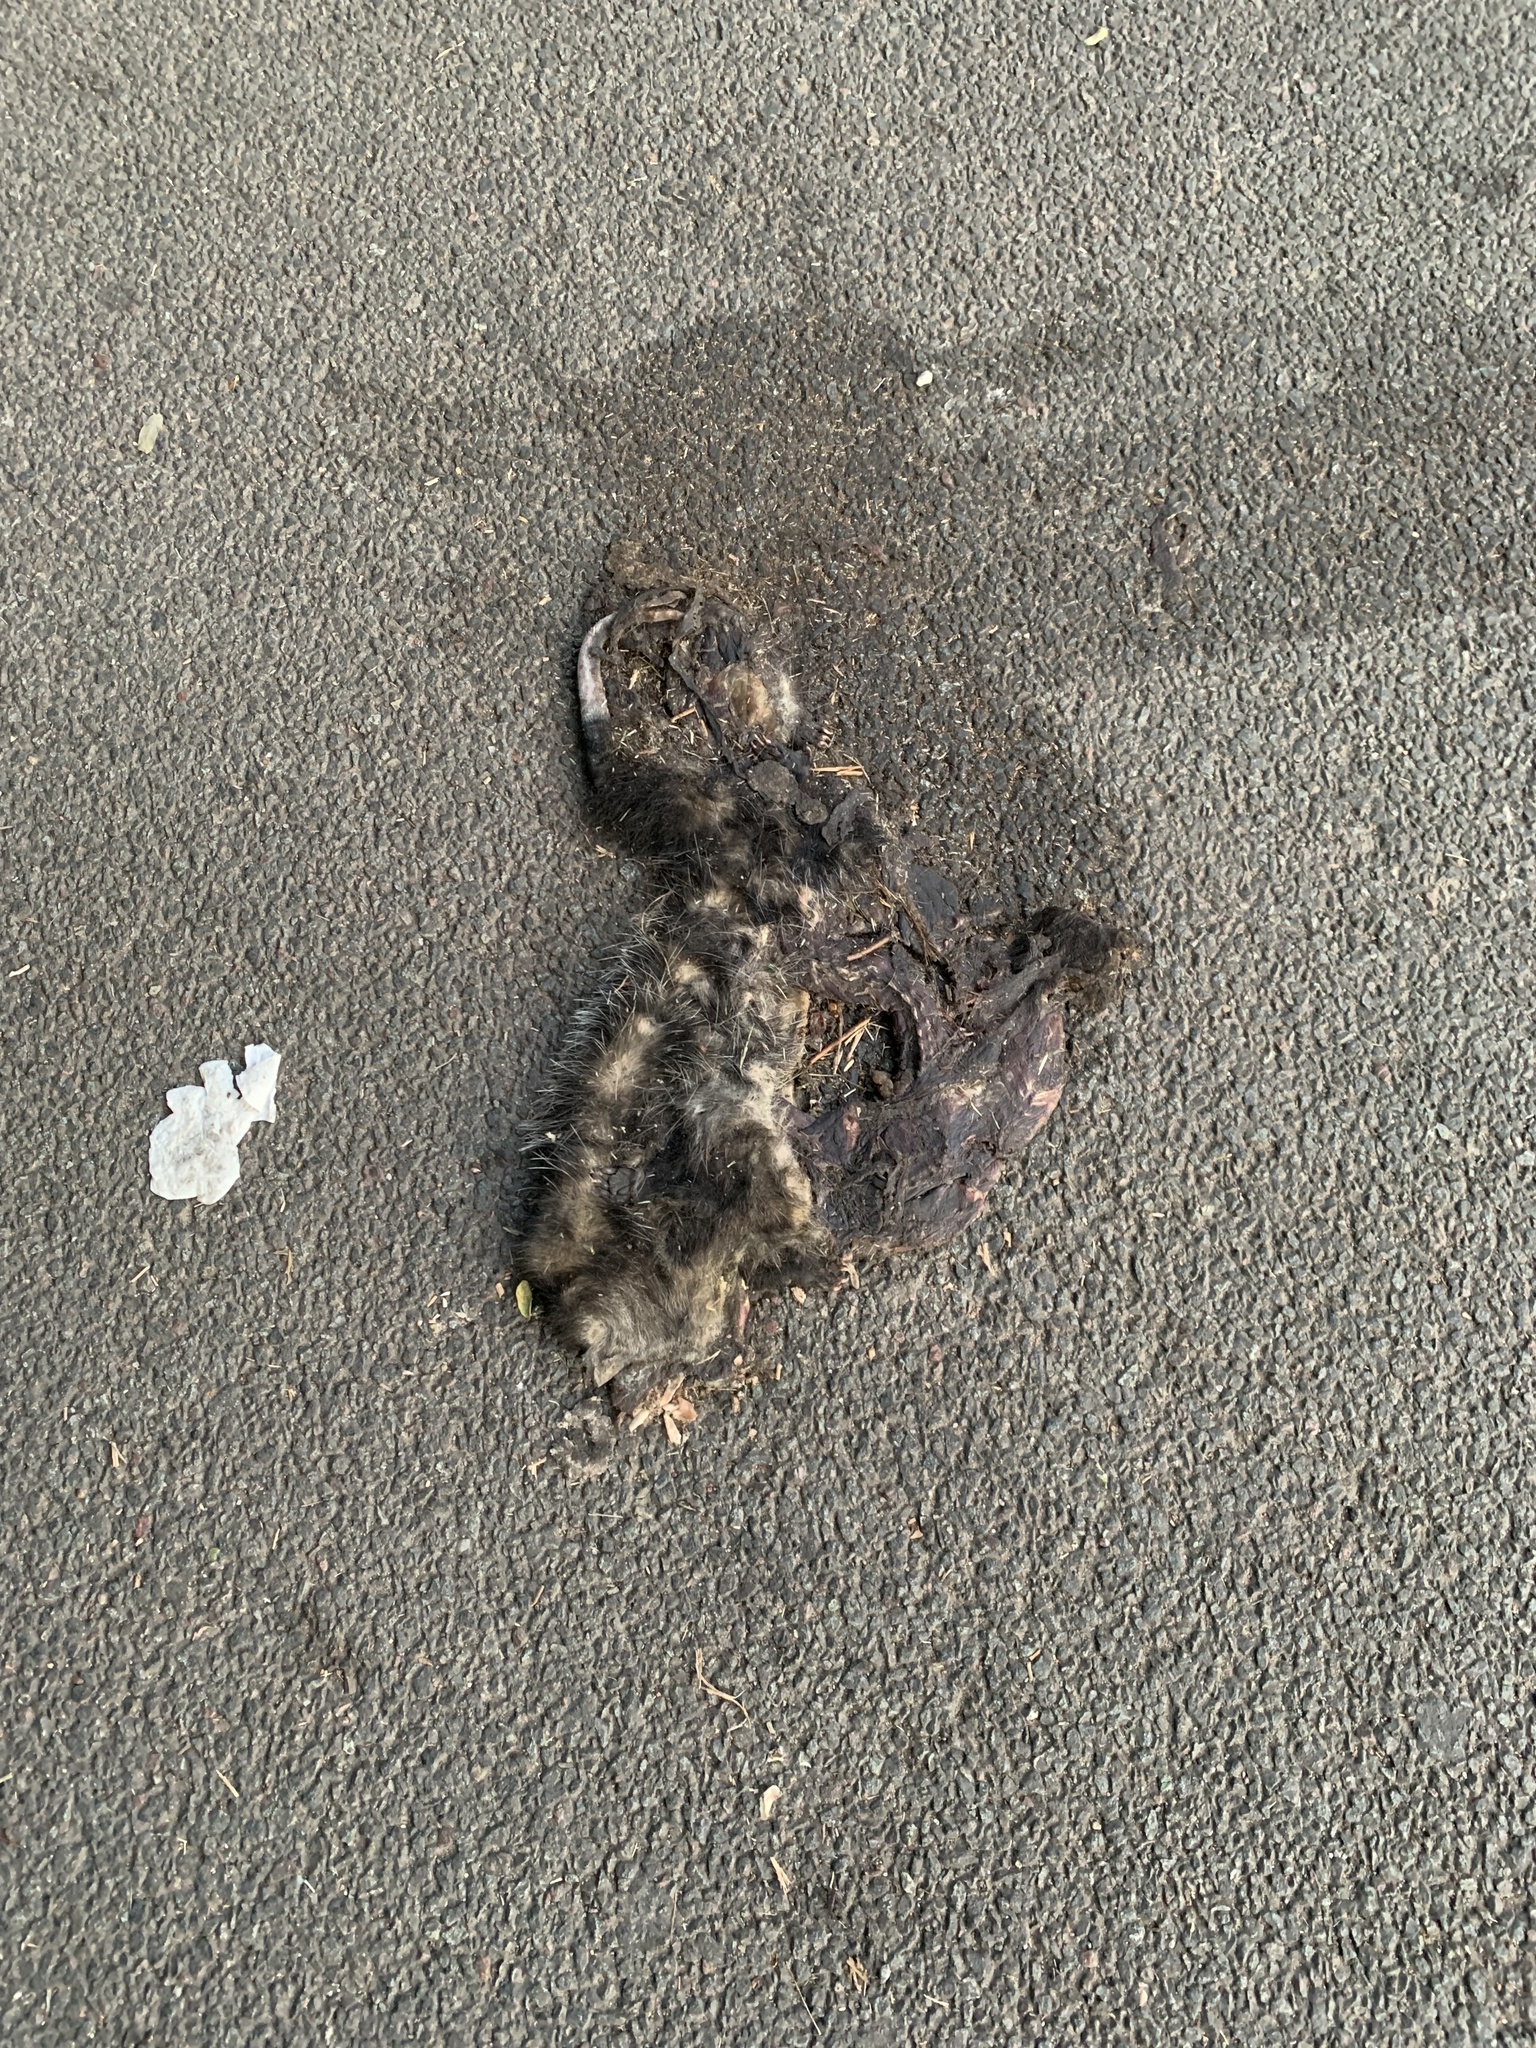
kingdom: Animalia
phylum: Chordata
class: Mammalia
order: Didelphimorphia
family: Didelphidae
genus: Didelphis
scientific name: Didelphis albiventris
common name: White-eared opossum
